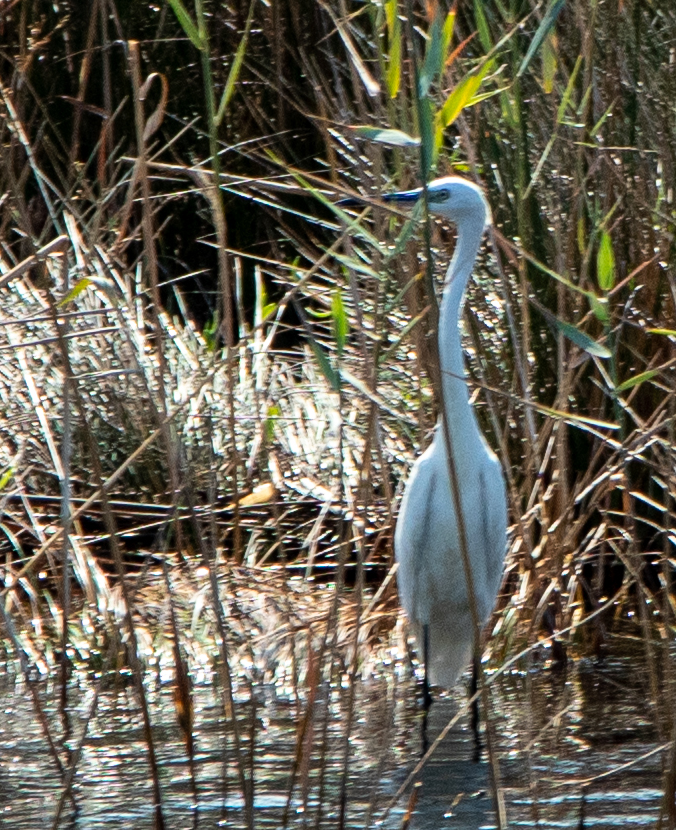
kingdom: Animalia
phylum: Chordata
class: Aves
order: Pelecaniformes
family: Ardeidae
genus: Egretta
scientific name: Egretta garzetta
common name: Little egret
